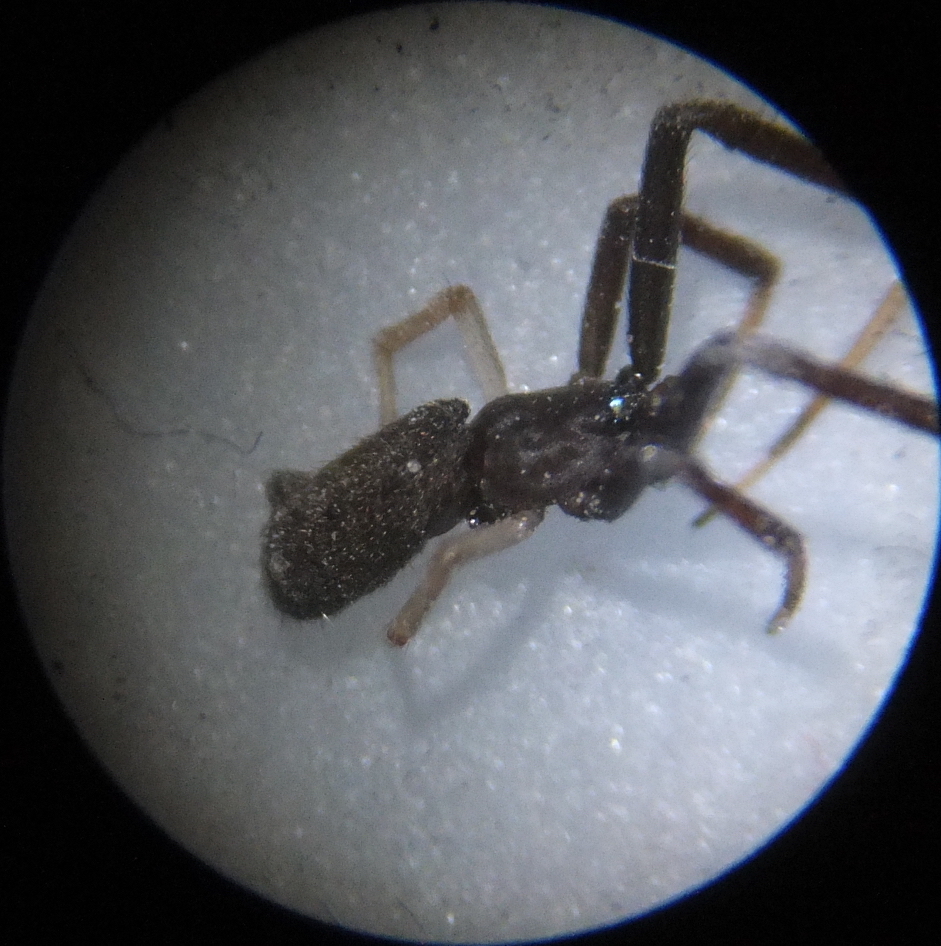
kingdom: Animalia
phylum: Arthropoda
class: Arachnida
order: Araneae
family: Theridiidae
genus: Episinus
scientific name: Episinus truncatus
